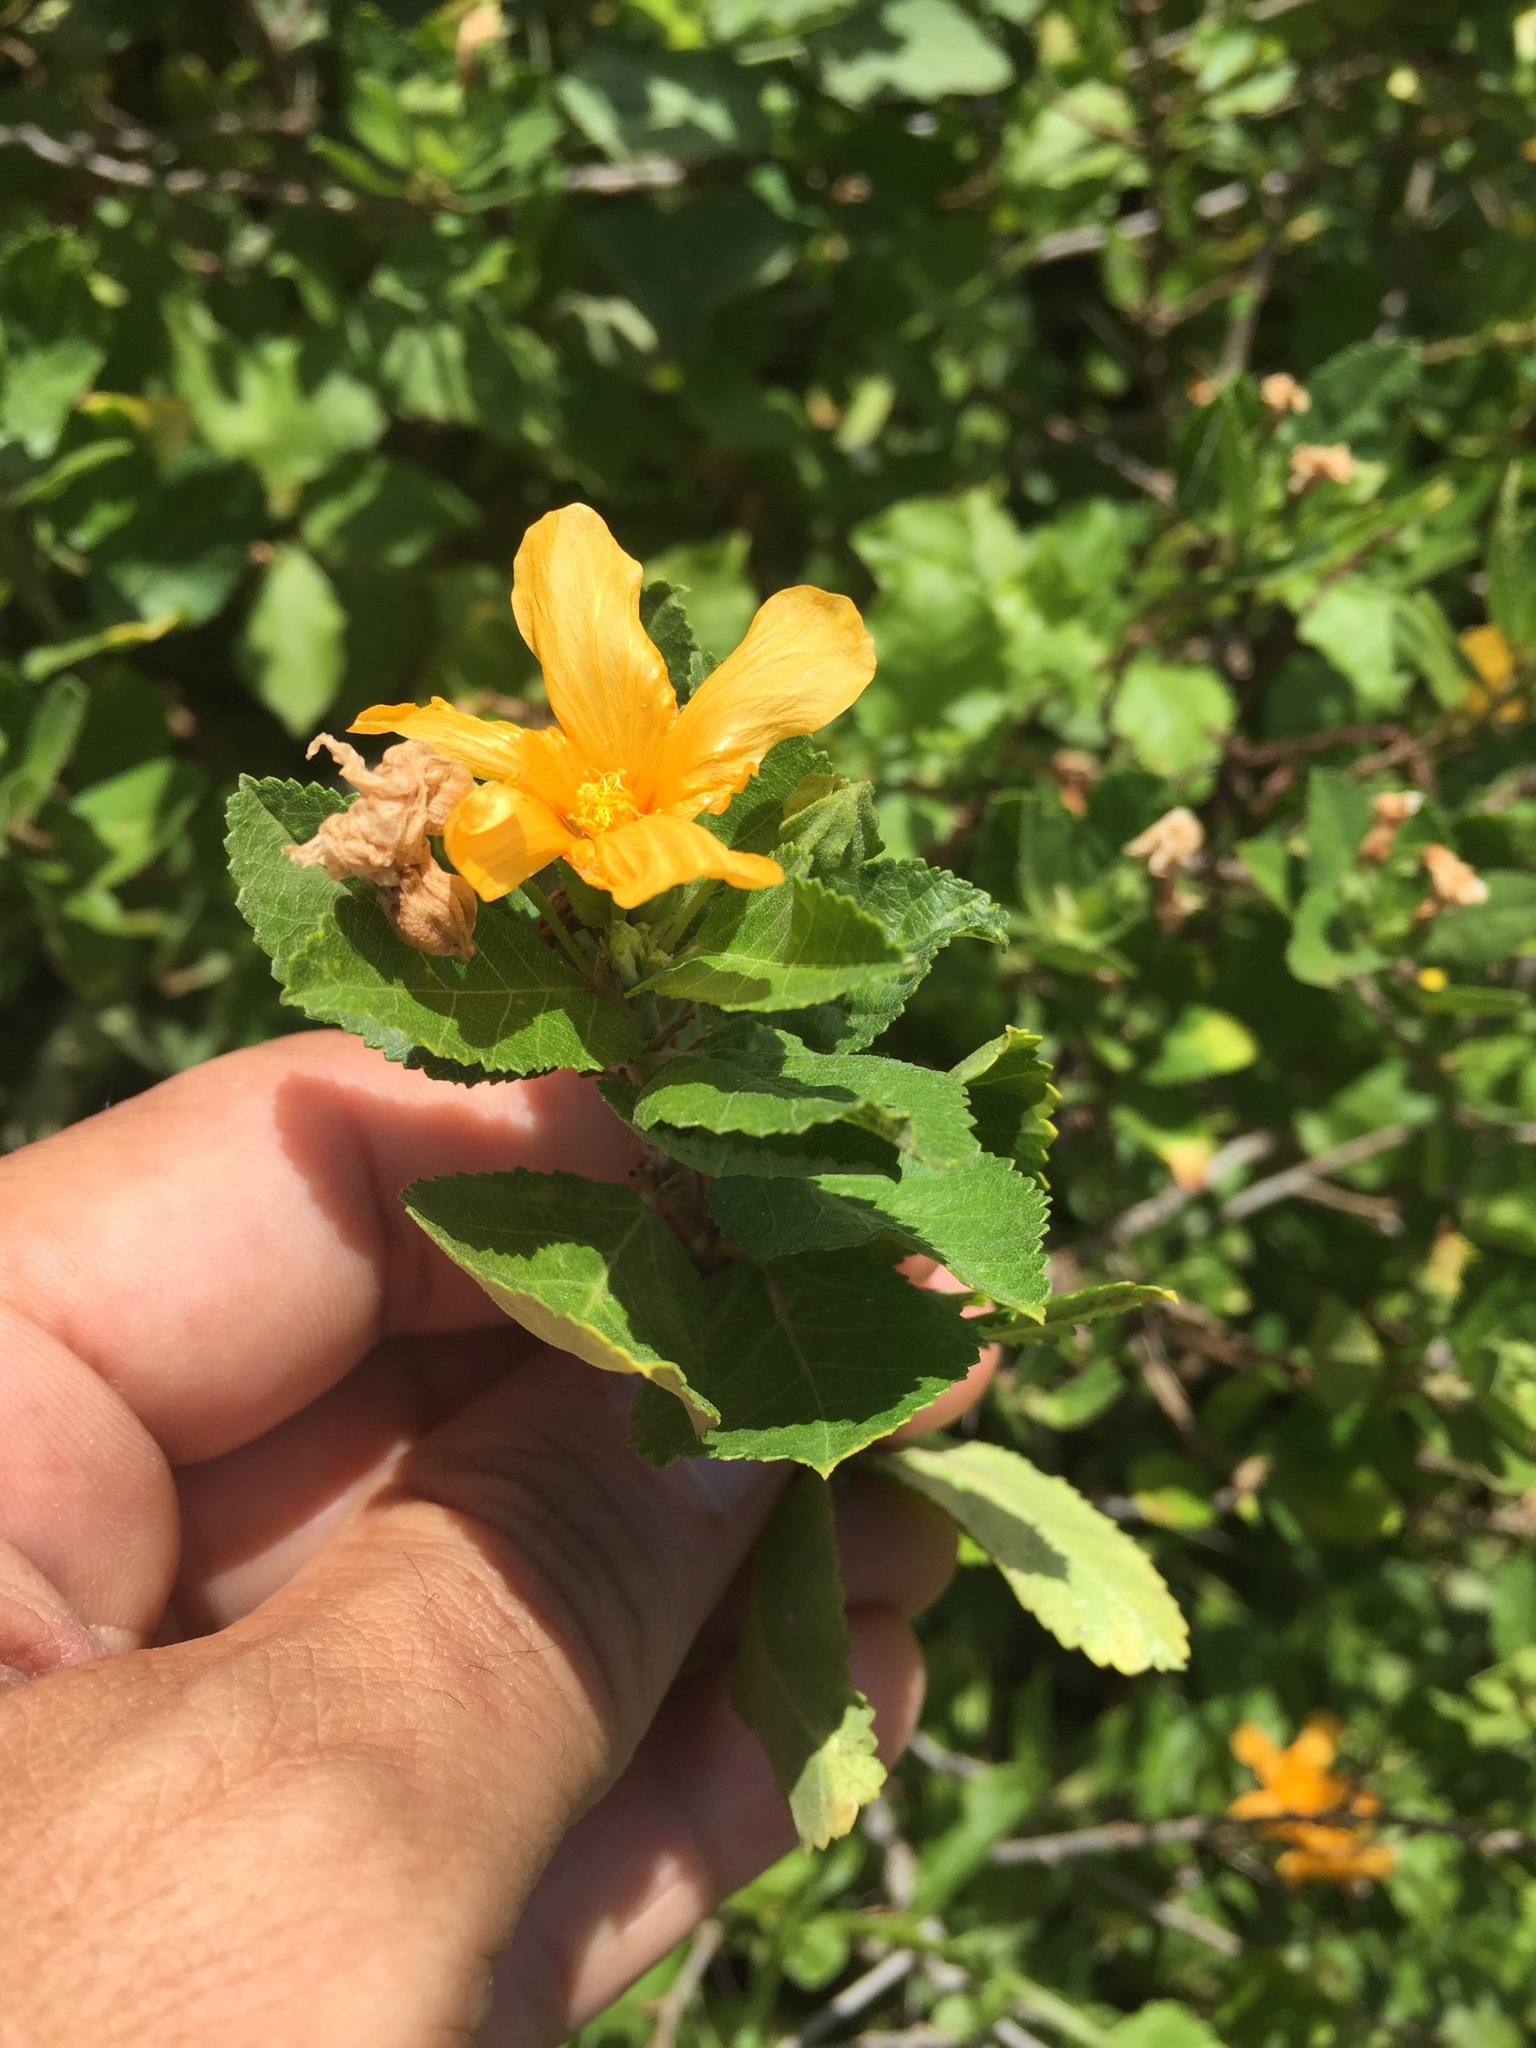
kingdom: Plantae
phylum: Tracheophyta
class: Magnoliopsida
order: Malvales
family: Malvaceae
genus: Sida
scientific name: Sida fallax
